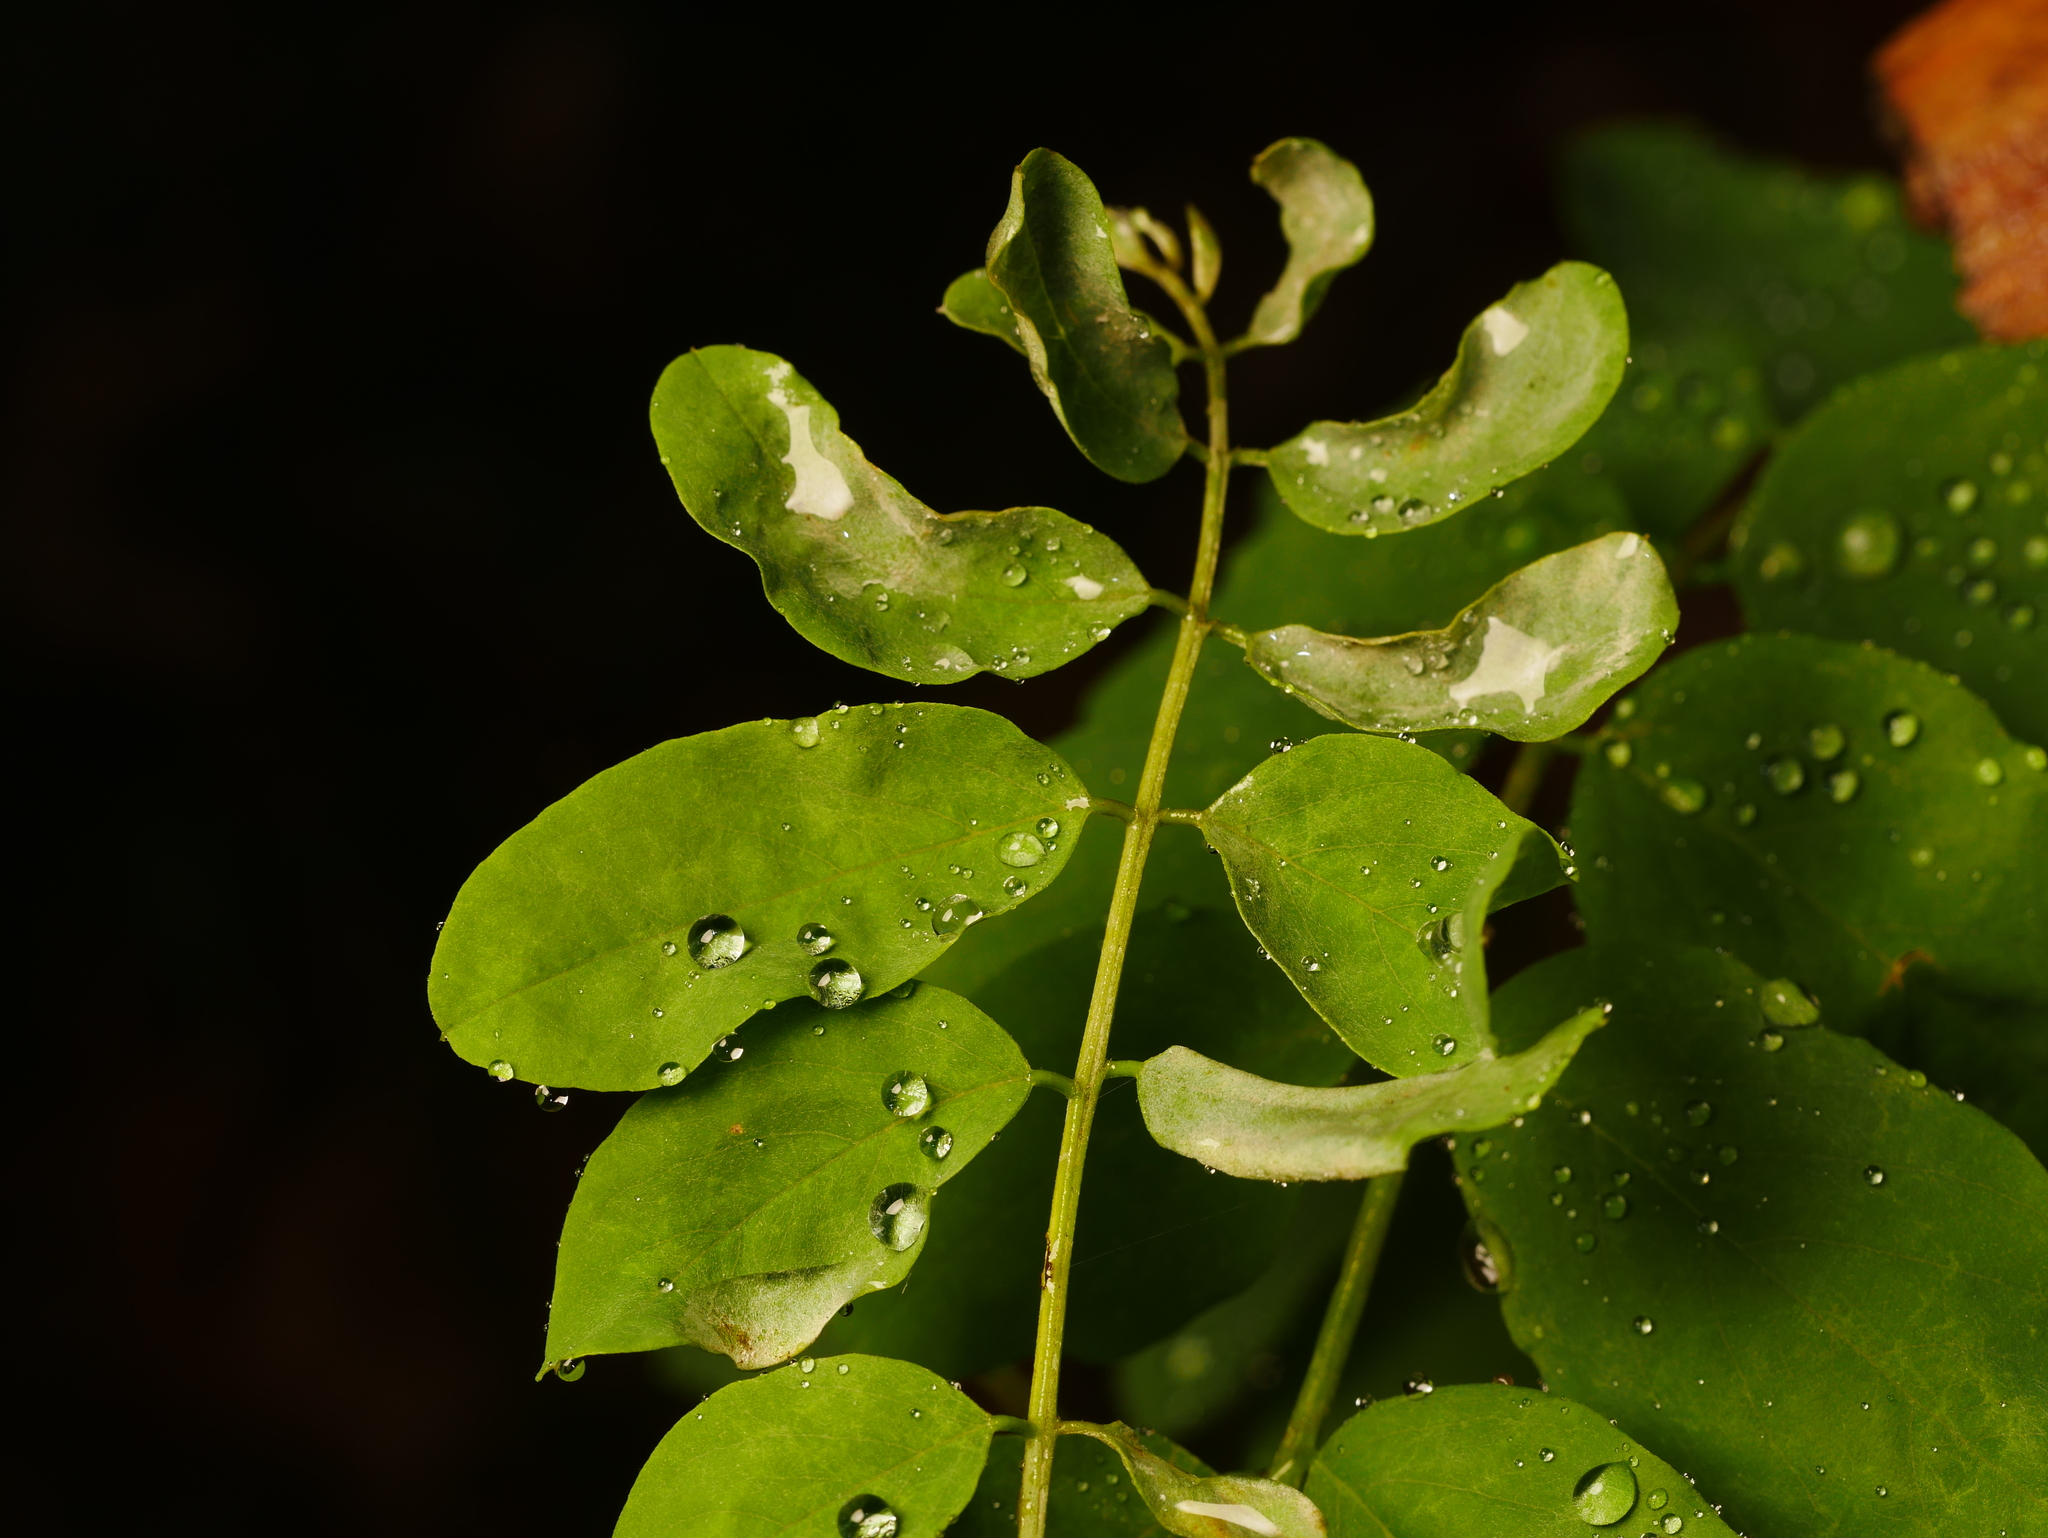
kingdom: Plantae
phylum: Tracheophyta
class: Magnoliopsida
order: Fabales
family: Fabaceae
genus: Robinia
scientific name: Robinia pseudoacacia
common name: Black locust
